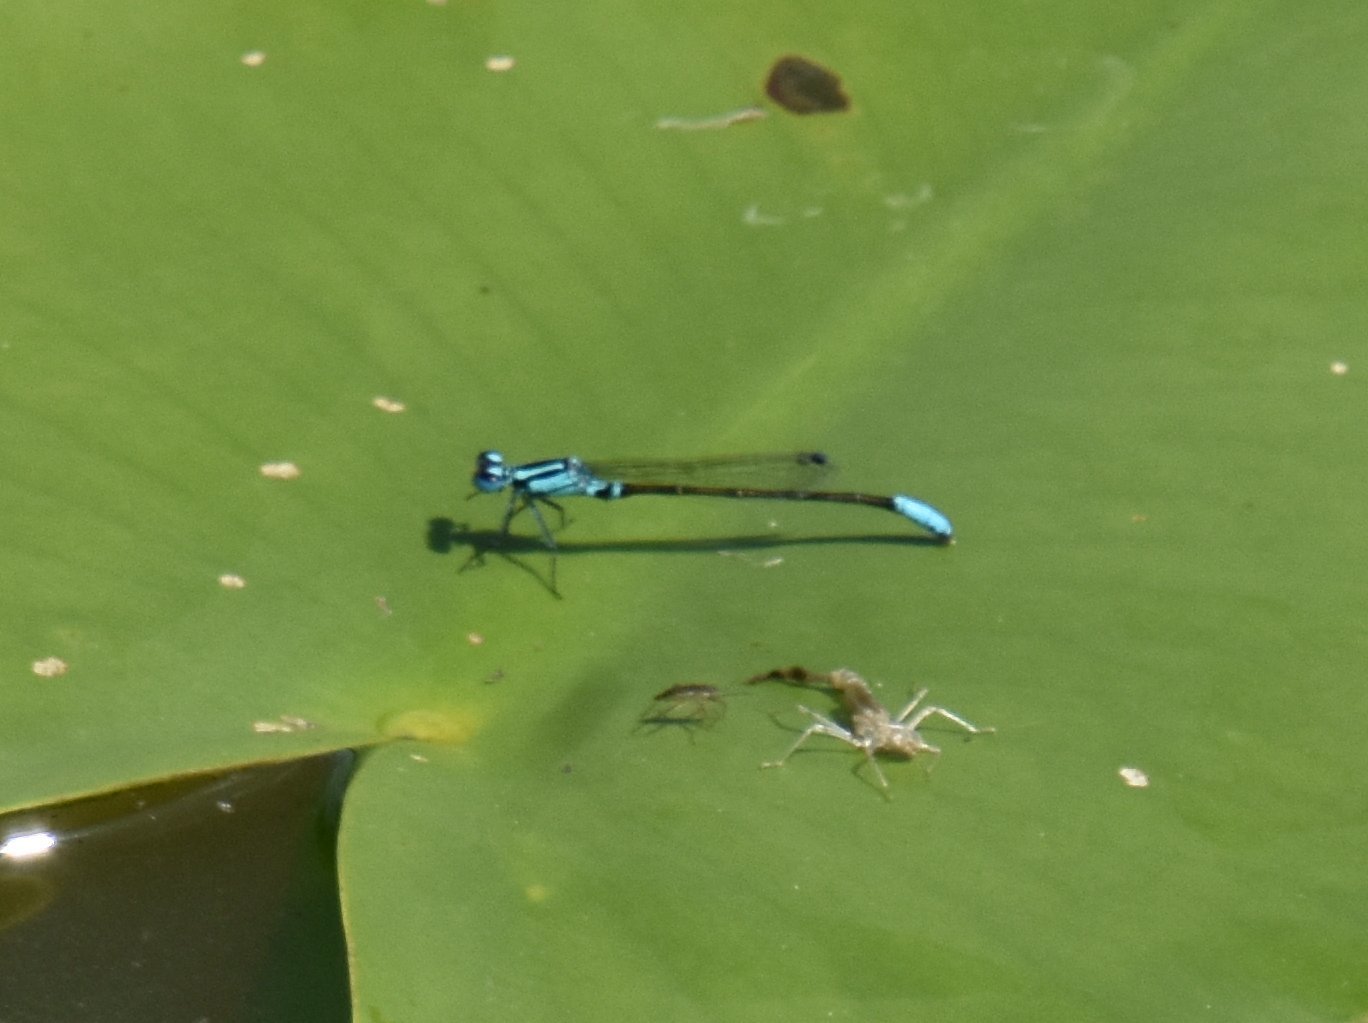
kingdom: Animalia
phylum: Arthropoda
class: Insecta
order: Odonata
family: Coenagrionidae
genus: Ischnura
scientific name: Ischnura kellicotti
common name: Lilypad forktail
